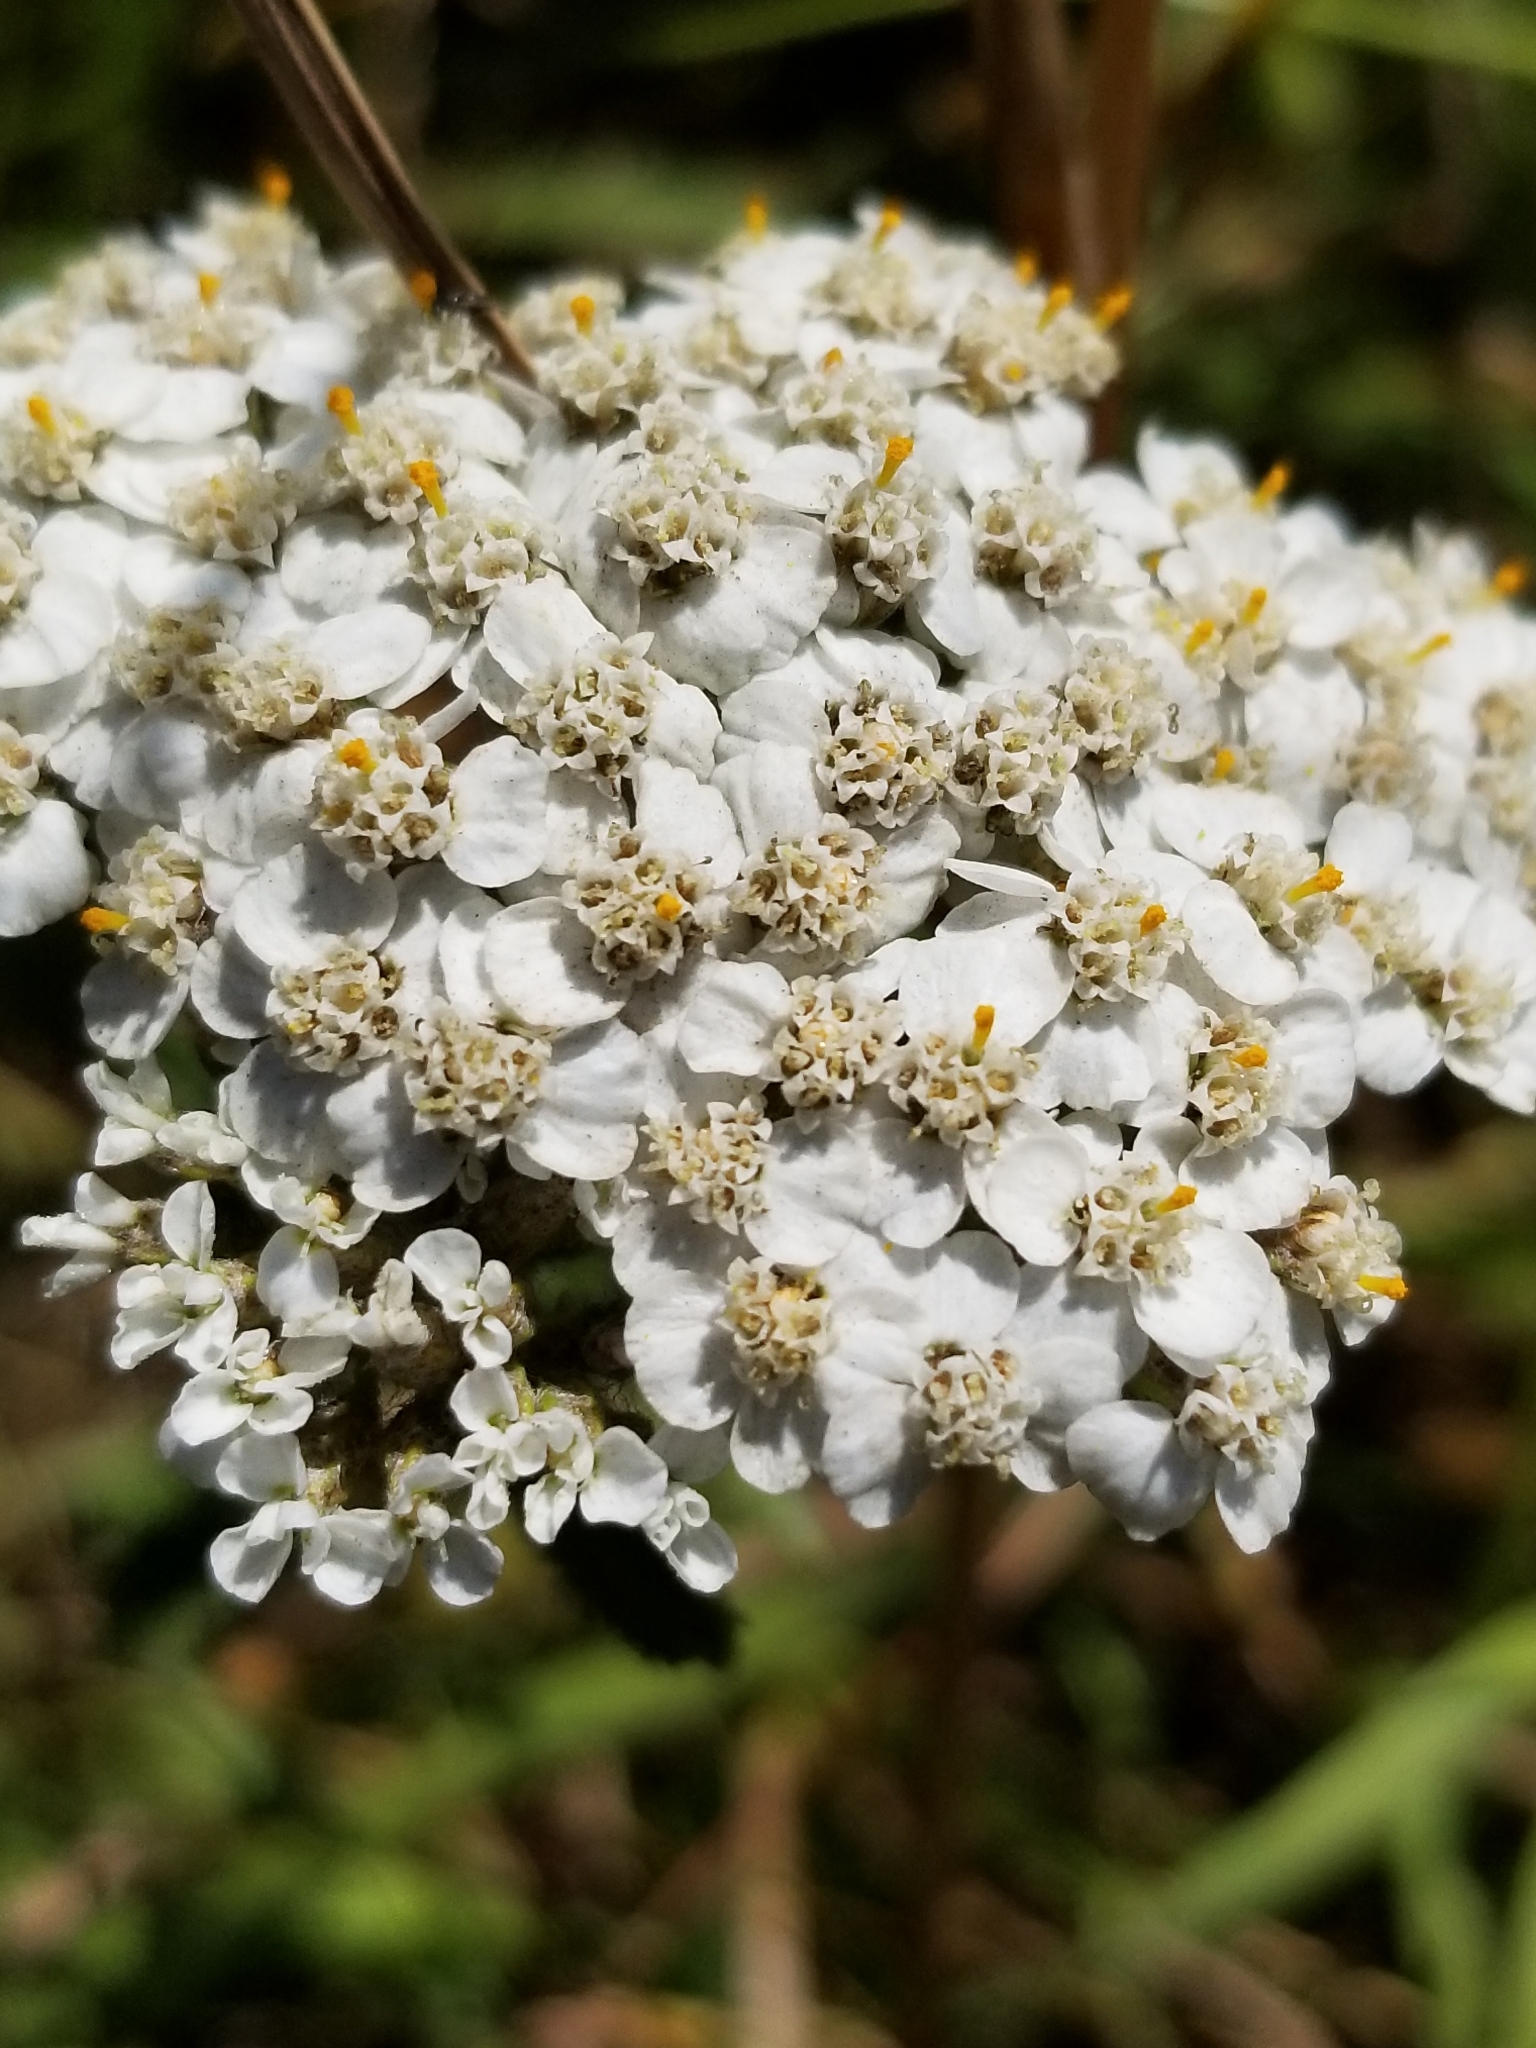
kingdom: Plantae
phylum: Tracheophyta
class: Magnoliopsida
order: Asterales
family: Asteraceae
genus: Achillea
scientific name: Achillea millefolium
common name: Yarrow
